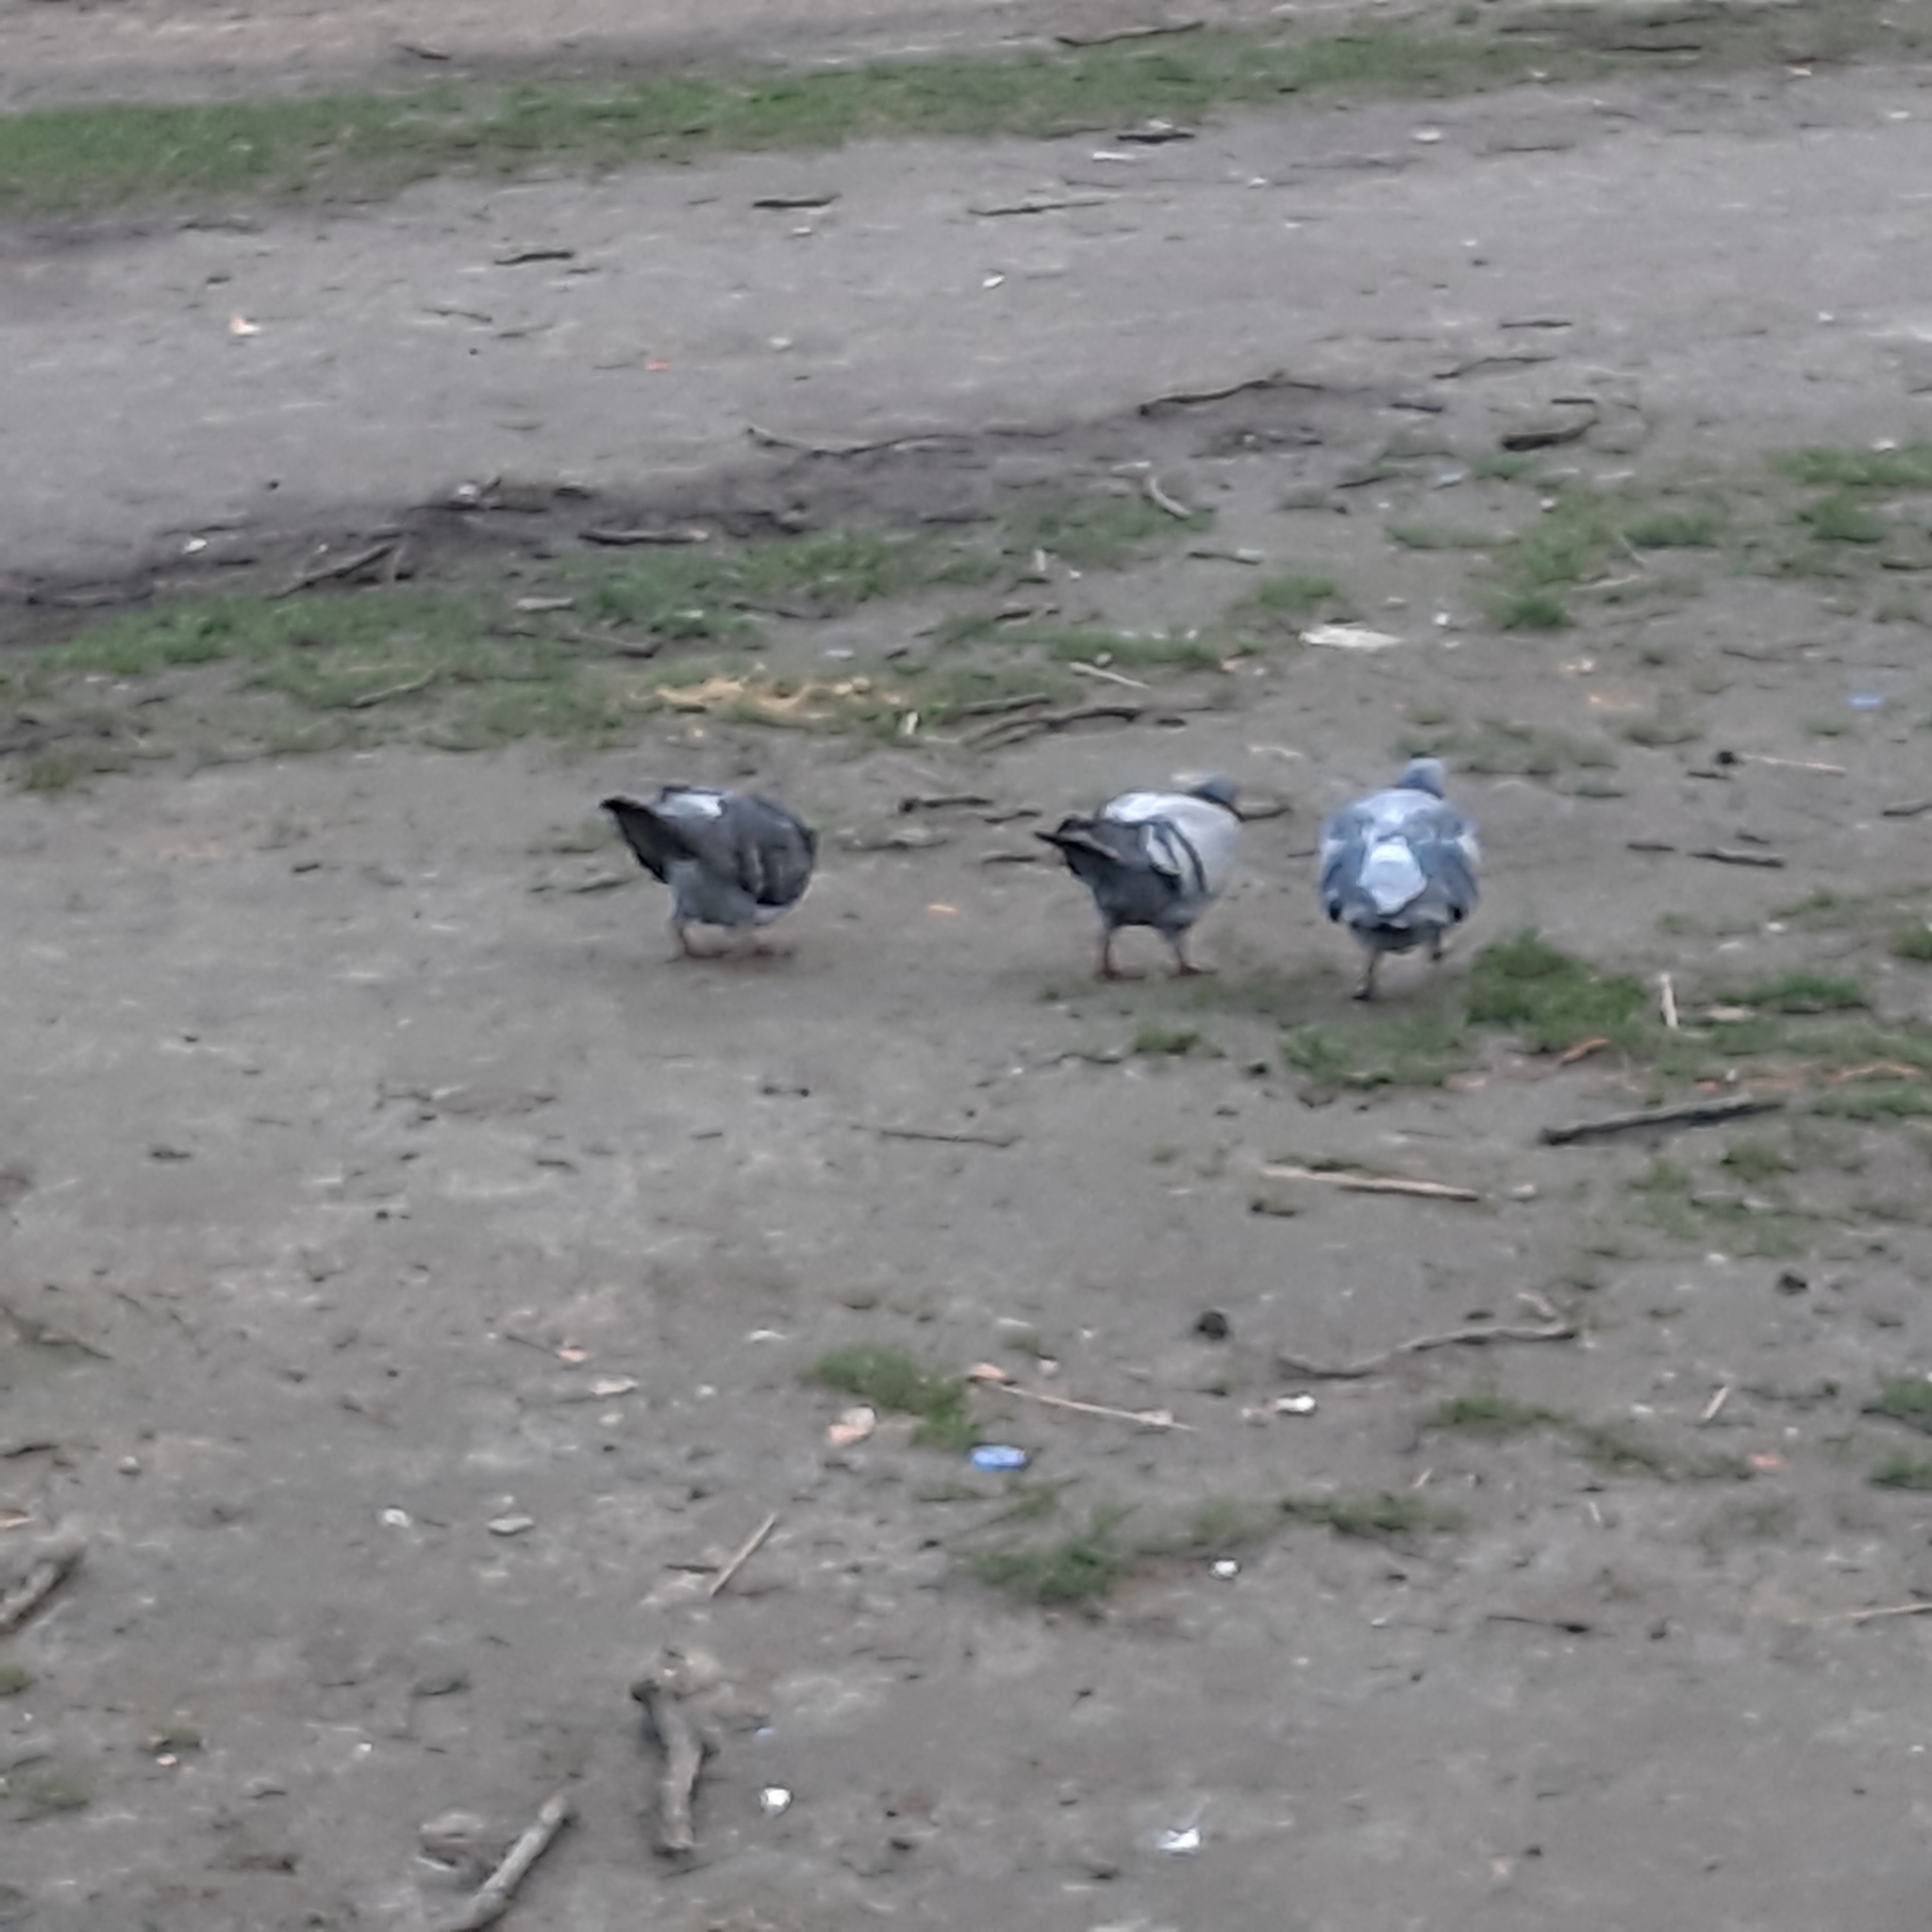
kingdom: Animalia
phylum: Chordata
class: Aves
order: Columbiformes
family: Columbidae
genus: Columba
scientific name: Columba livia
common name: Rock pigeon
